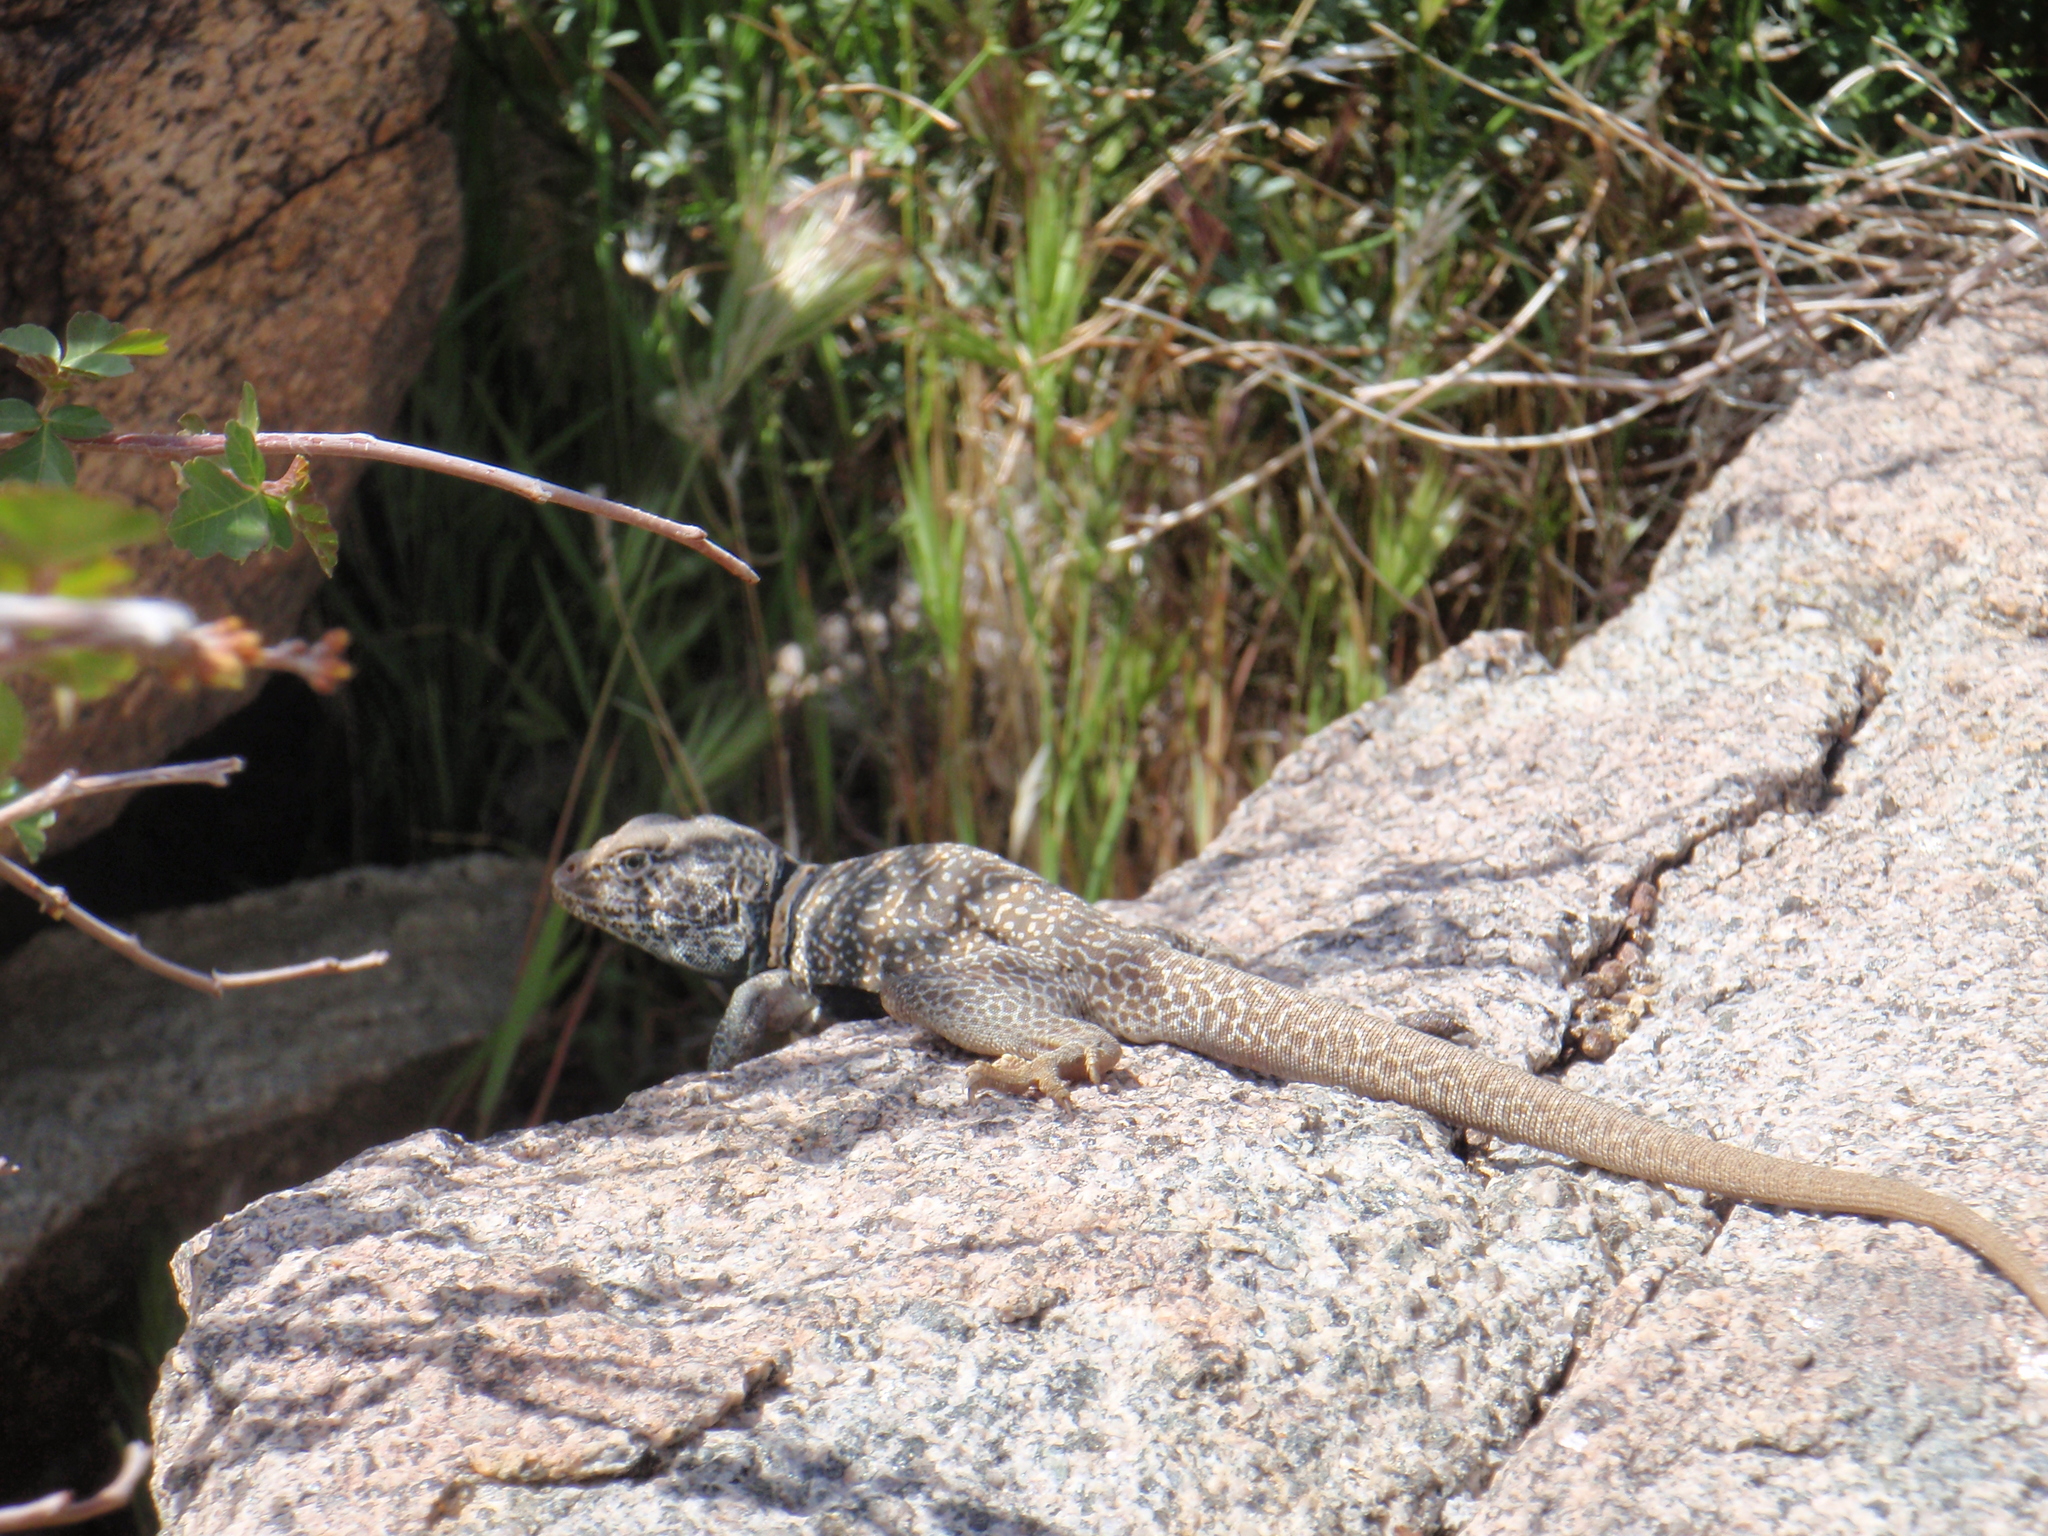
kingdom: Animalia
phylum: Chordata
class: Squamata
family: Crotaphytidae
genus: Crotaphytus
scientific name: Crotaphytus bicinctores
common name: Mojave black-collared lizard
